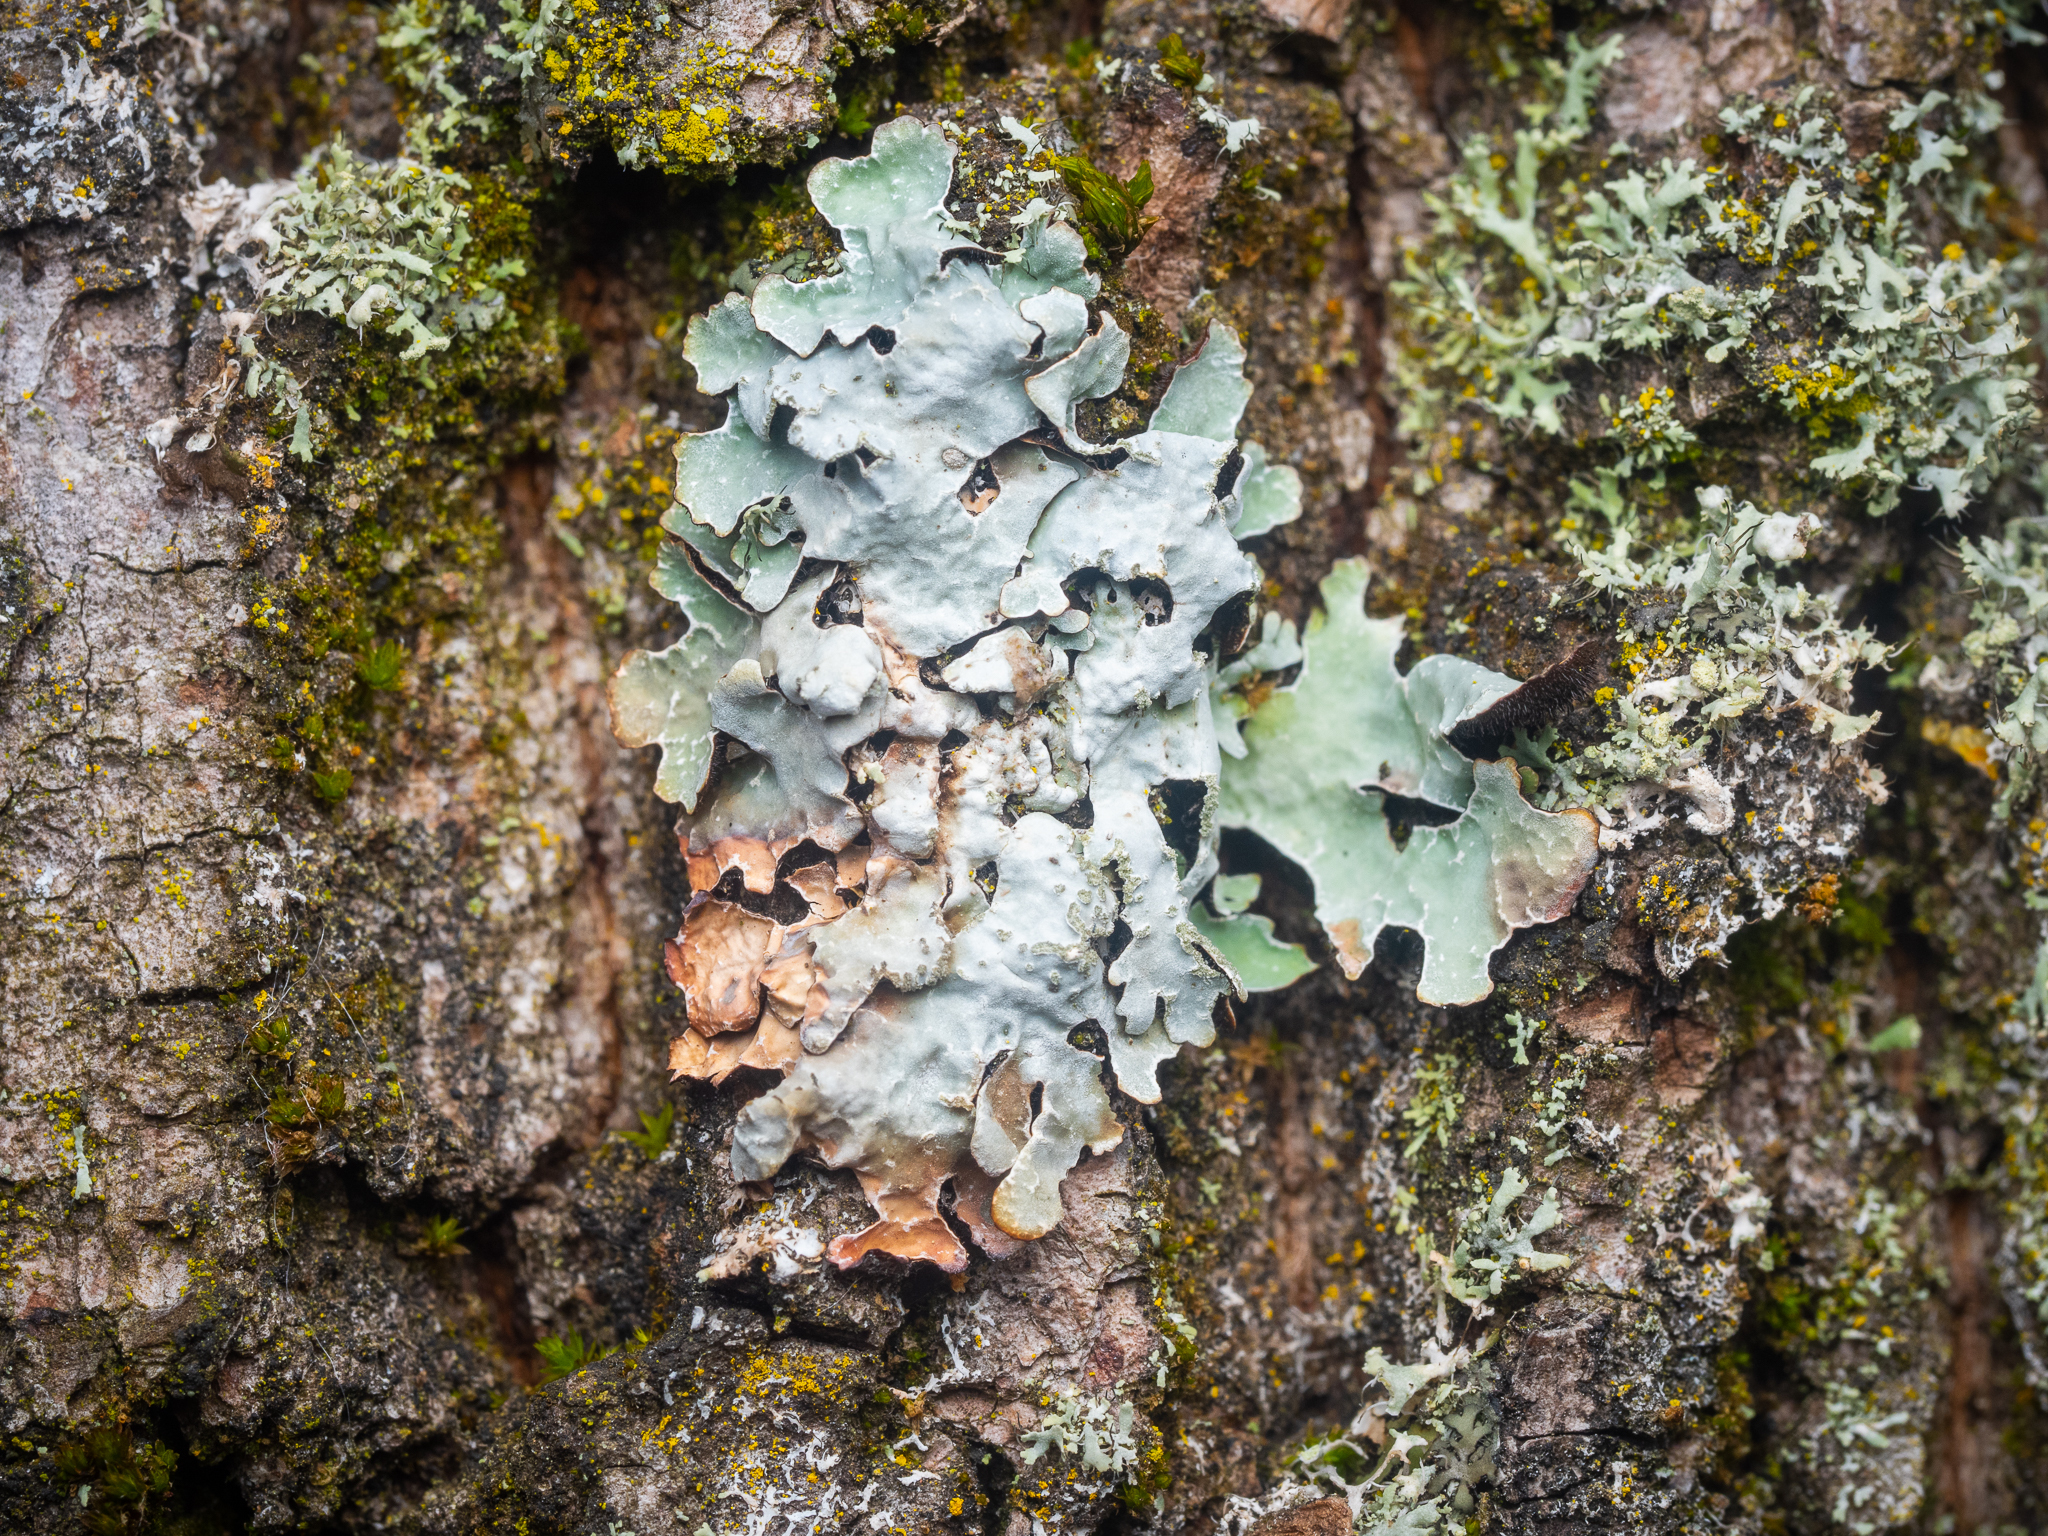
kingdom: Fungi
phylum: Ascomycota
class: Lecanoromycetes
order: Lecanorales
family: Parmeliaceae
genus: Parmelia
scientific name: Parmelia sulcata
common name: Netted shield lichen
